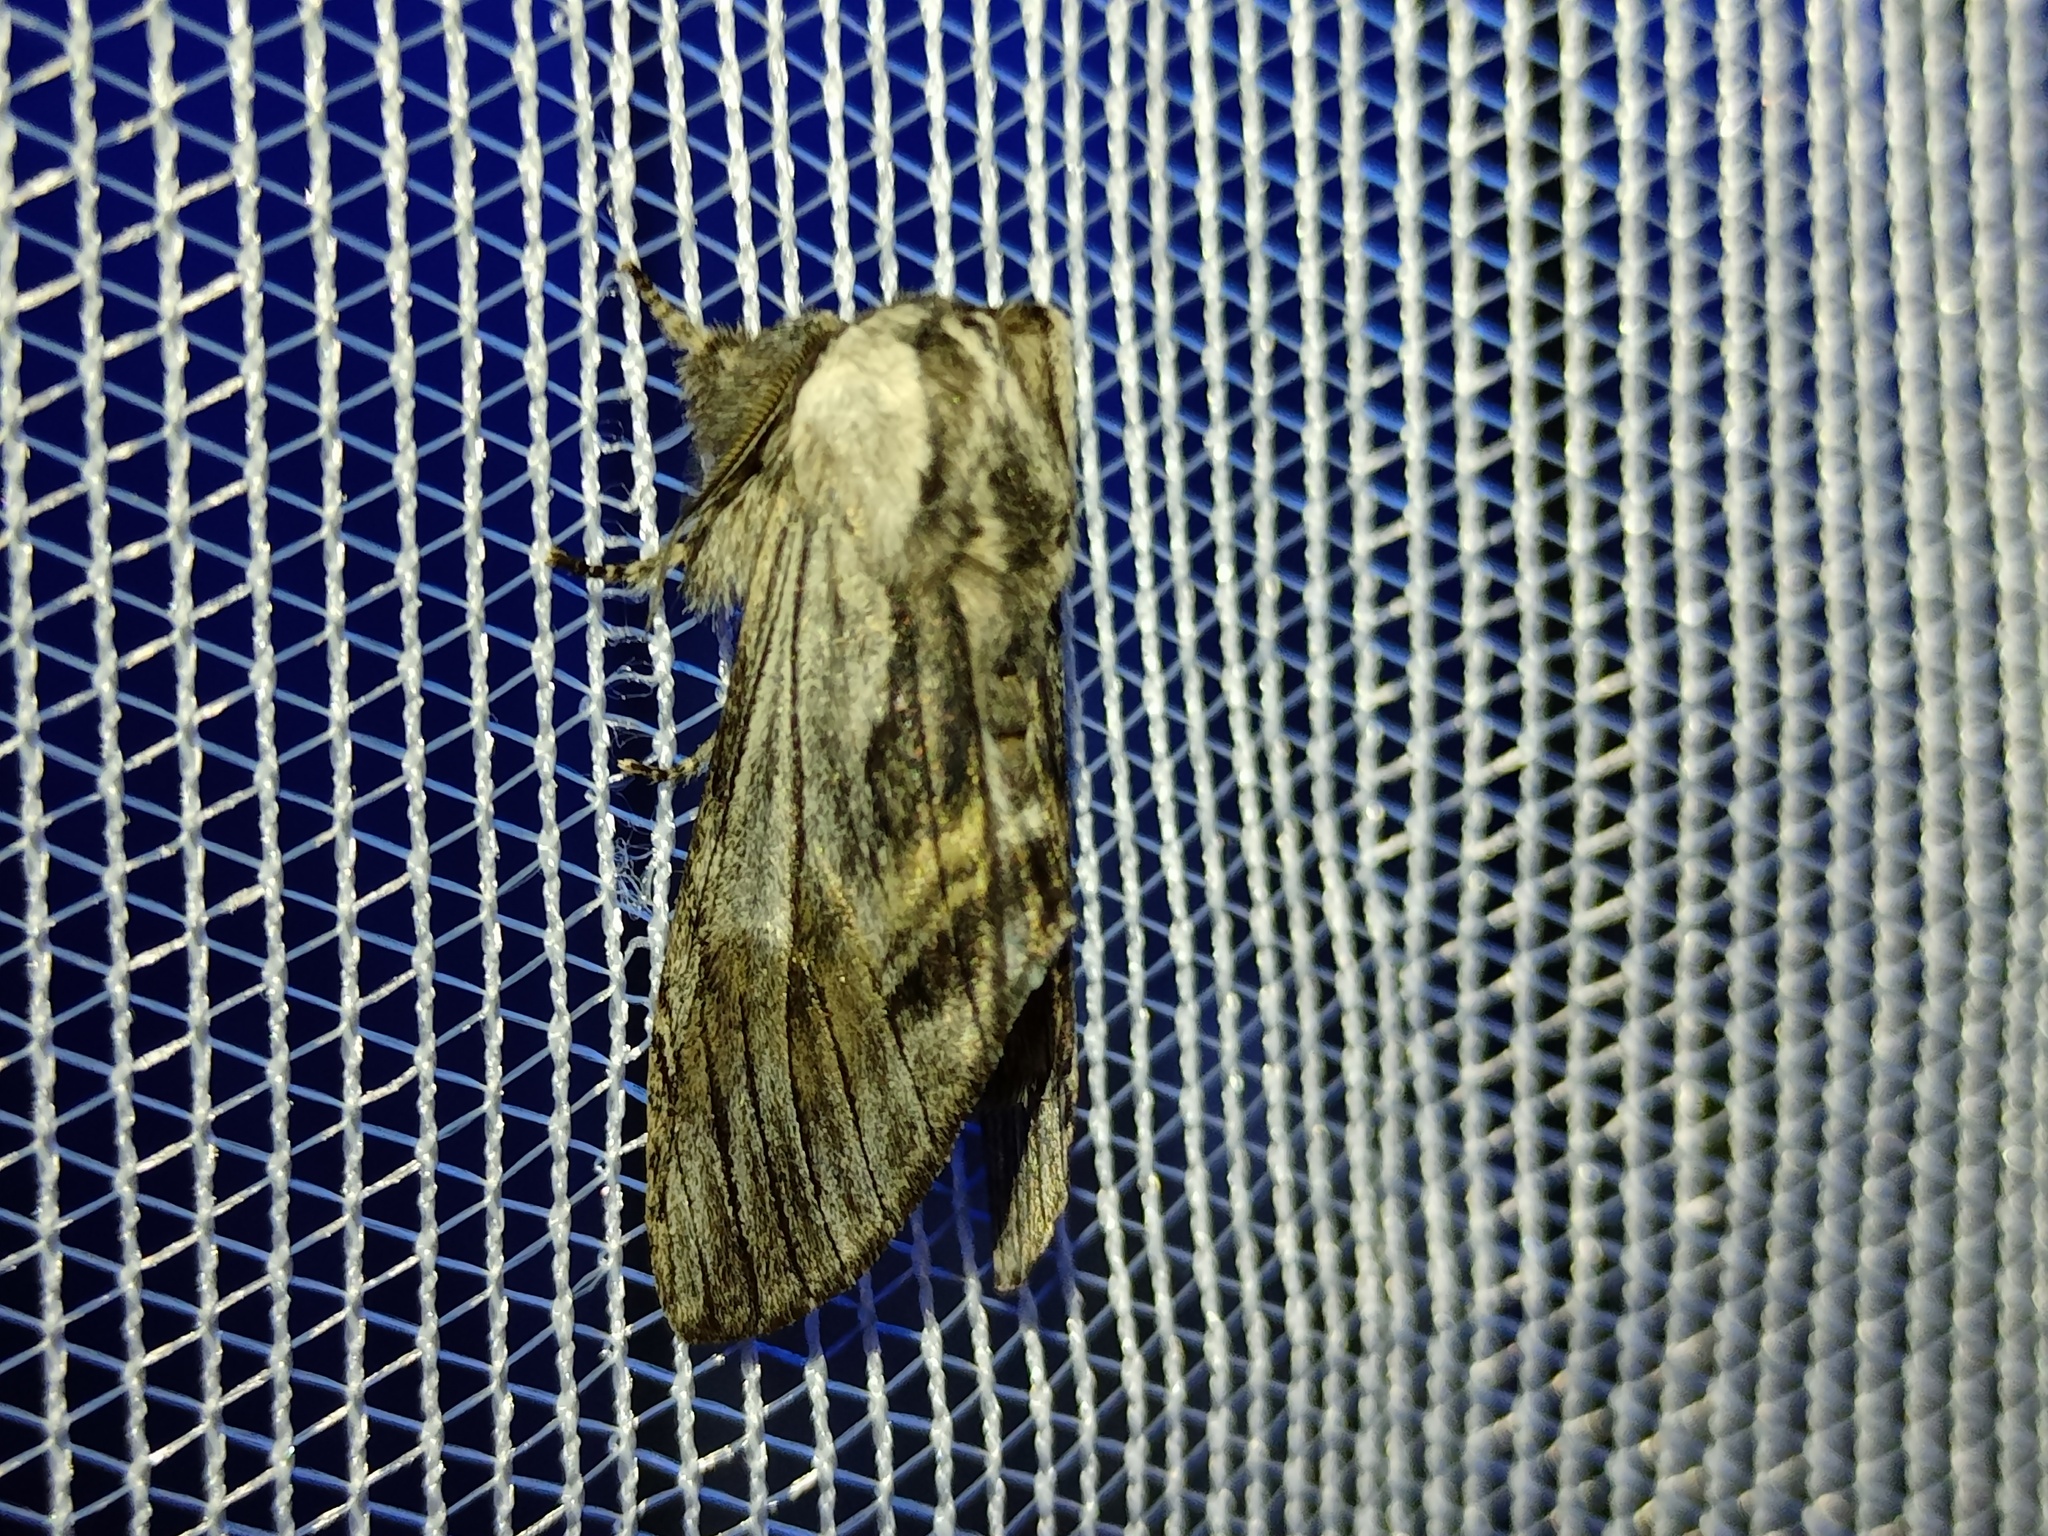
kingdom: Animalia
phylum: Arthropoda
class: Insecta
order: Lepidoptera
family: Notodontidae
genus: Harpyia
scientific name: Harpyia milhauseri
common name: Tawny prominent
